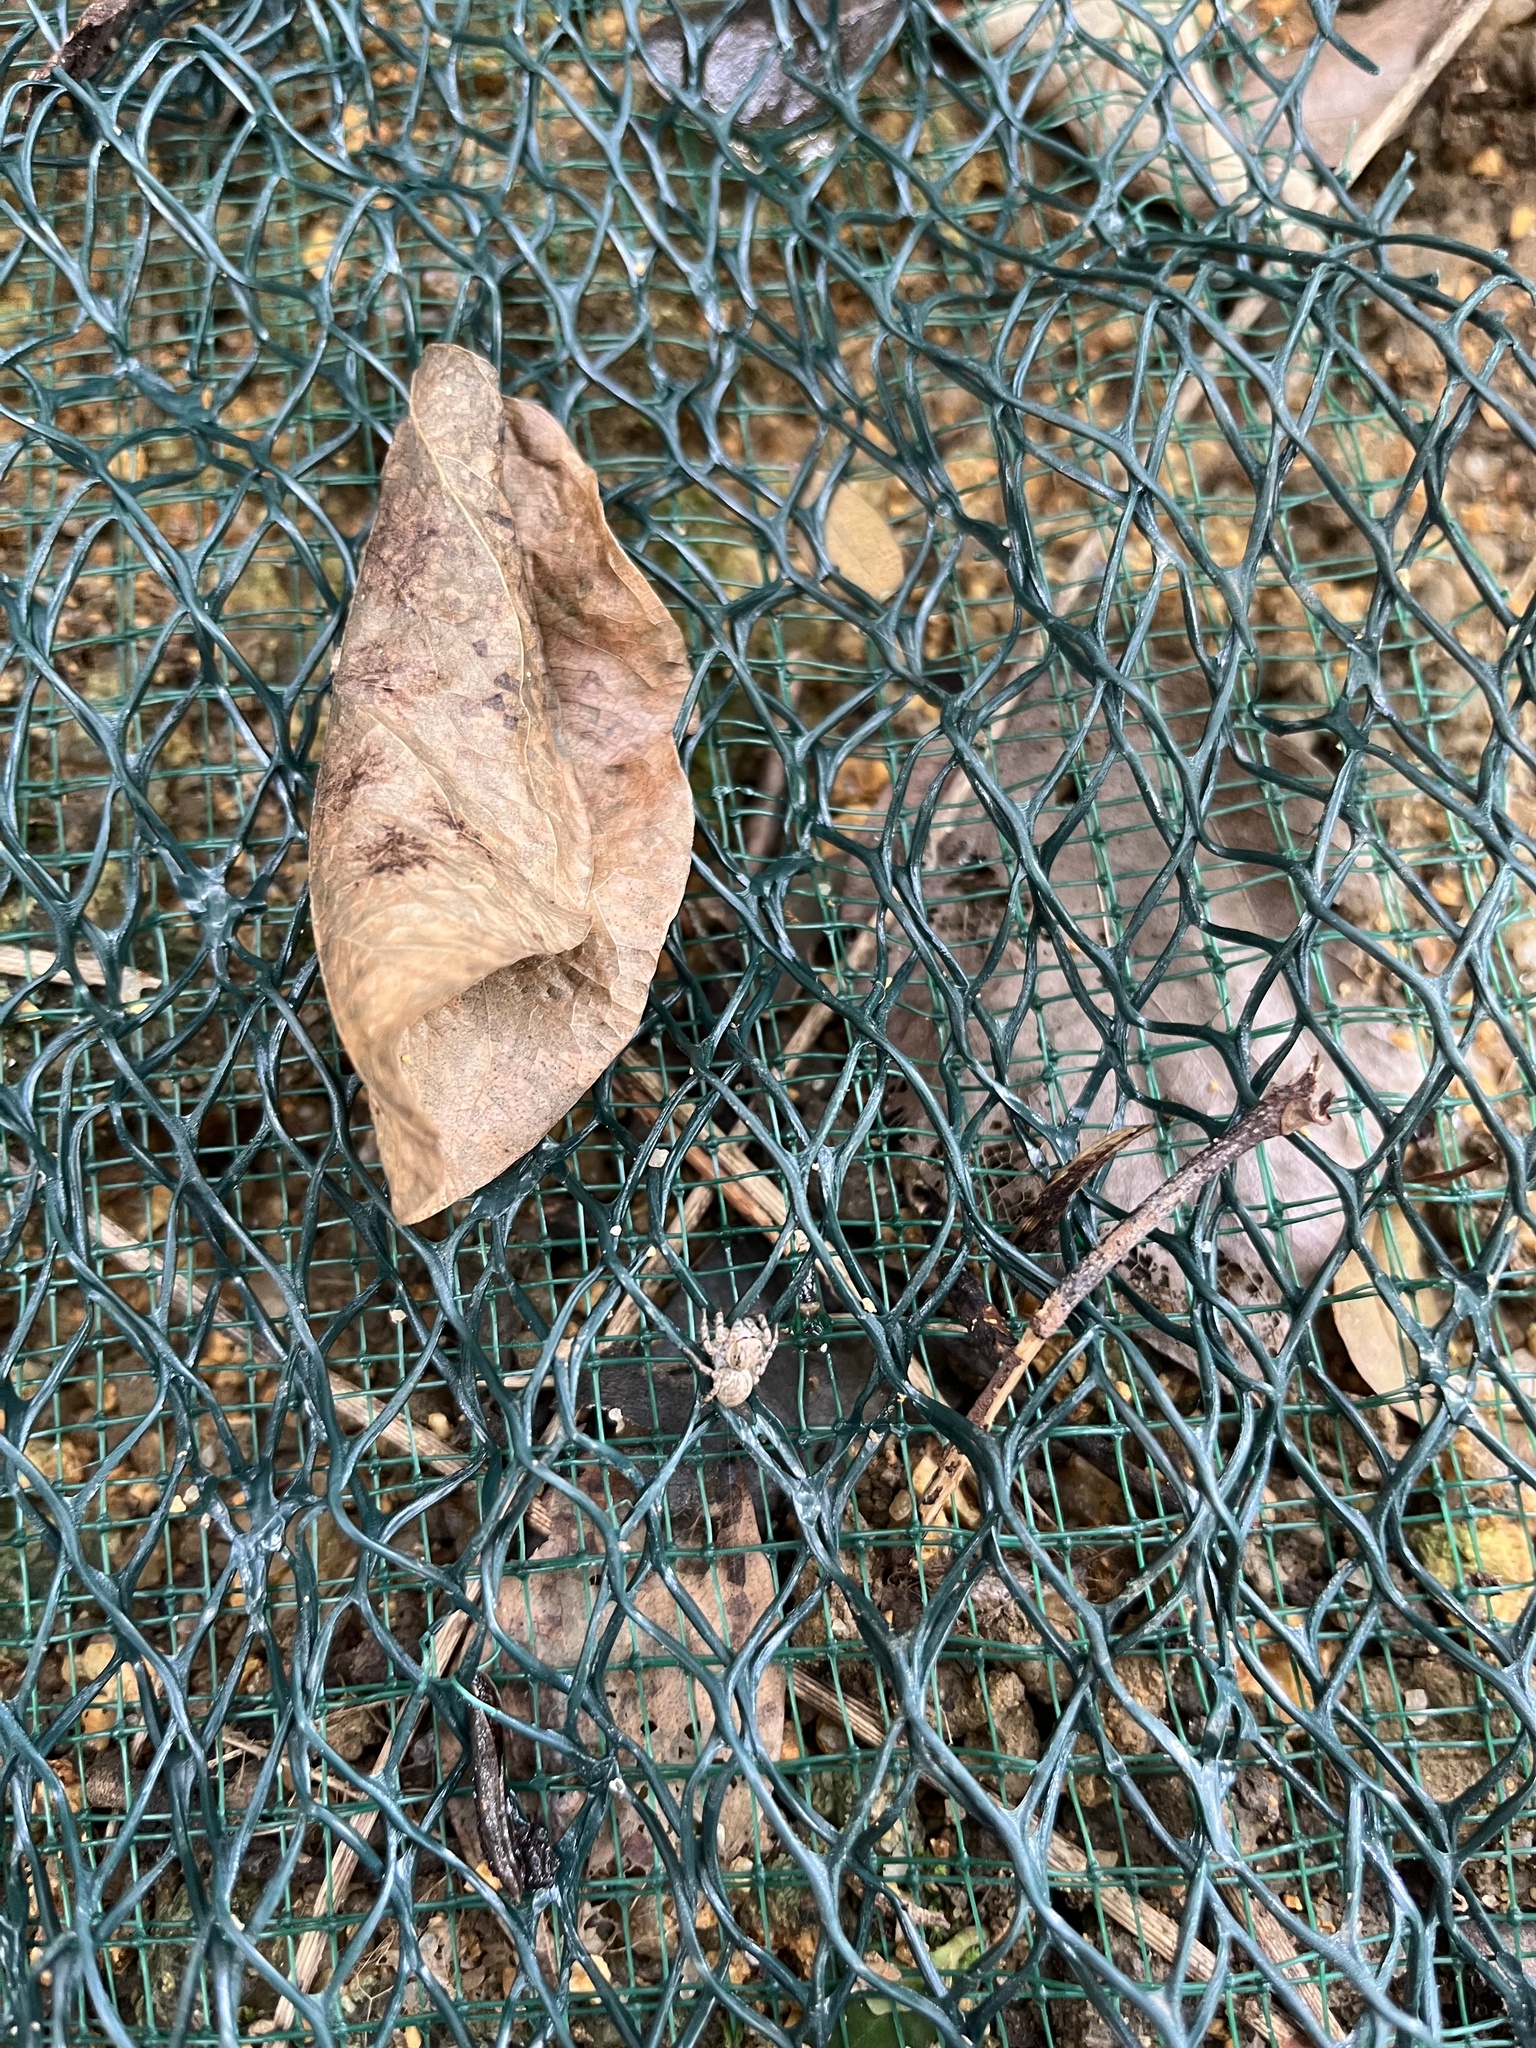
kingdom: Animalia
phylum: Arthropoda
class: Arachnida
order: Araneae
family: Salticidae
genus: Cytaea
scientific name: Cytaea maoming
